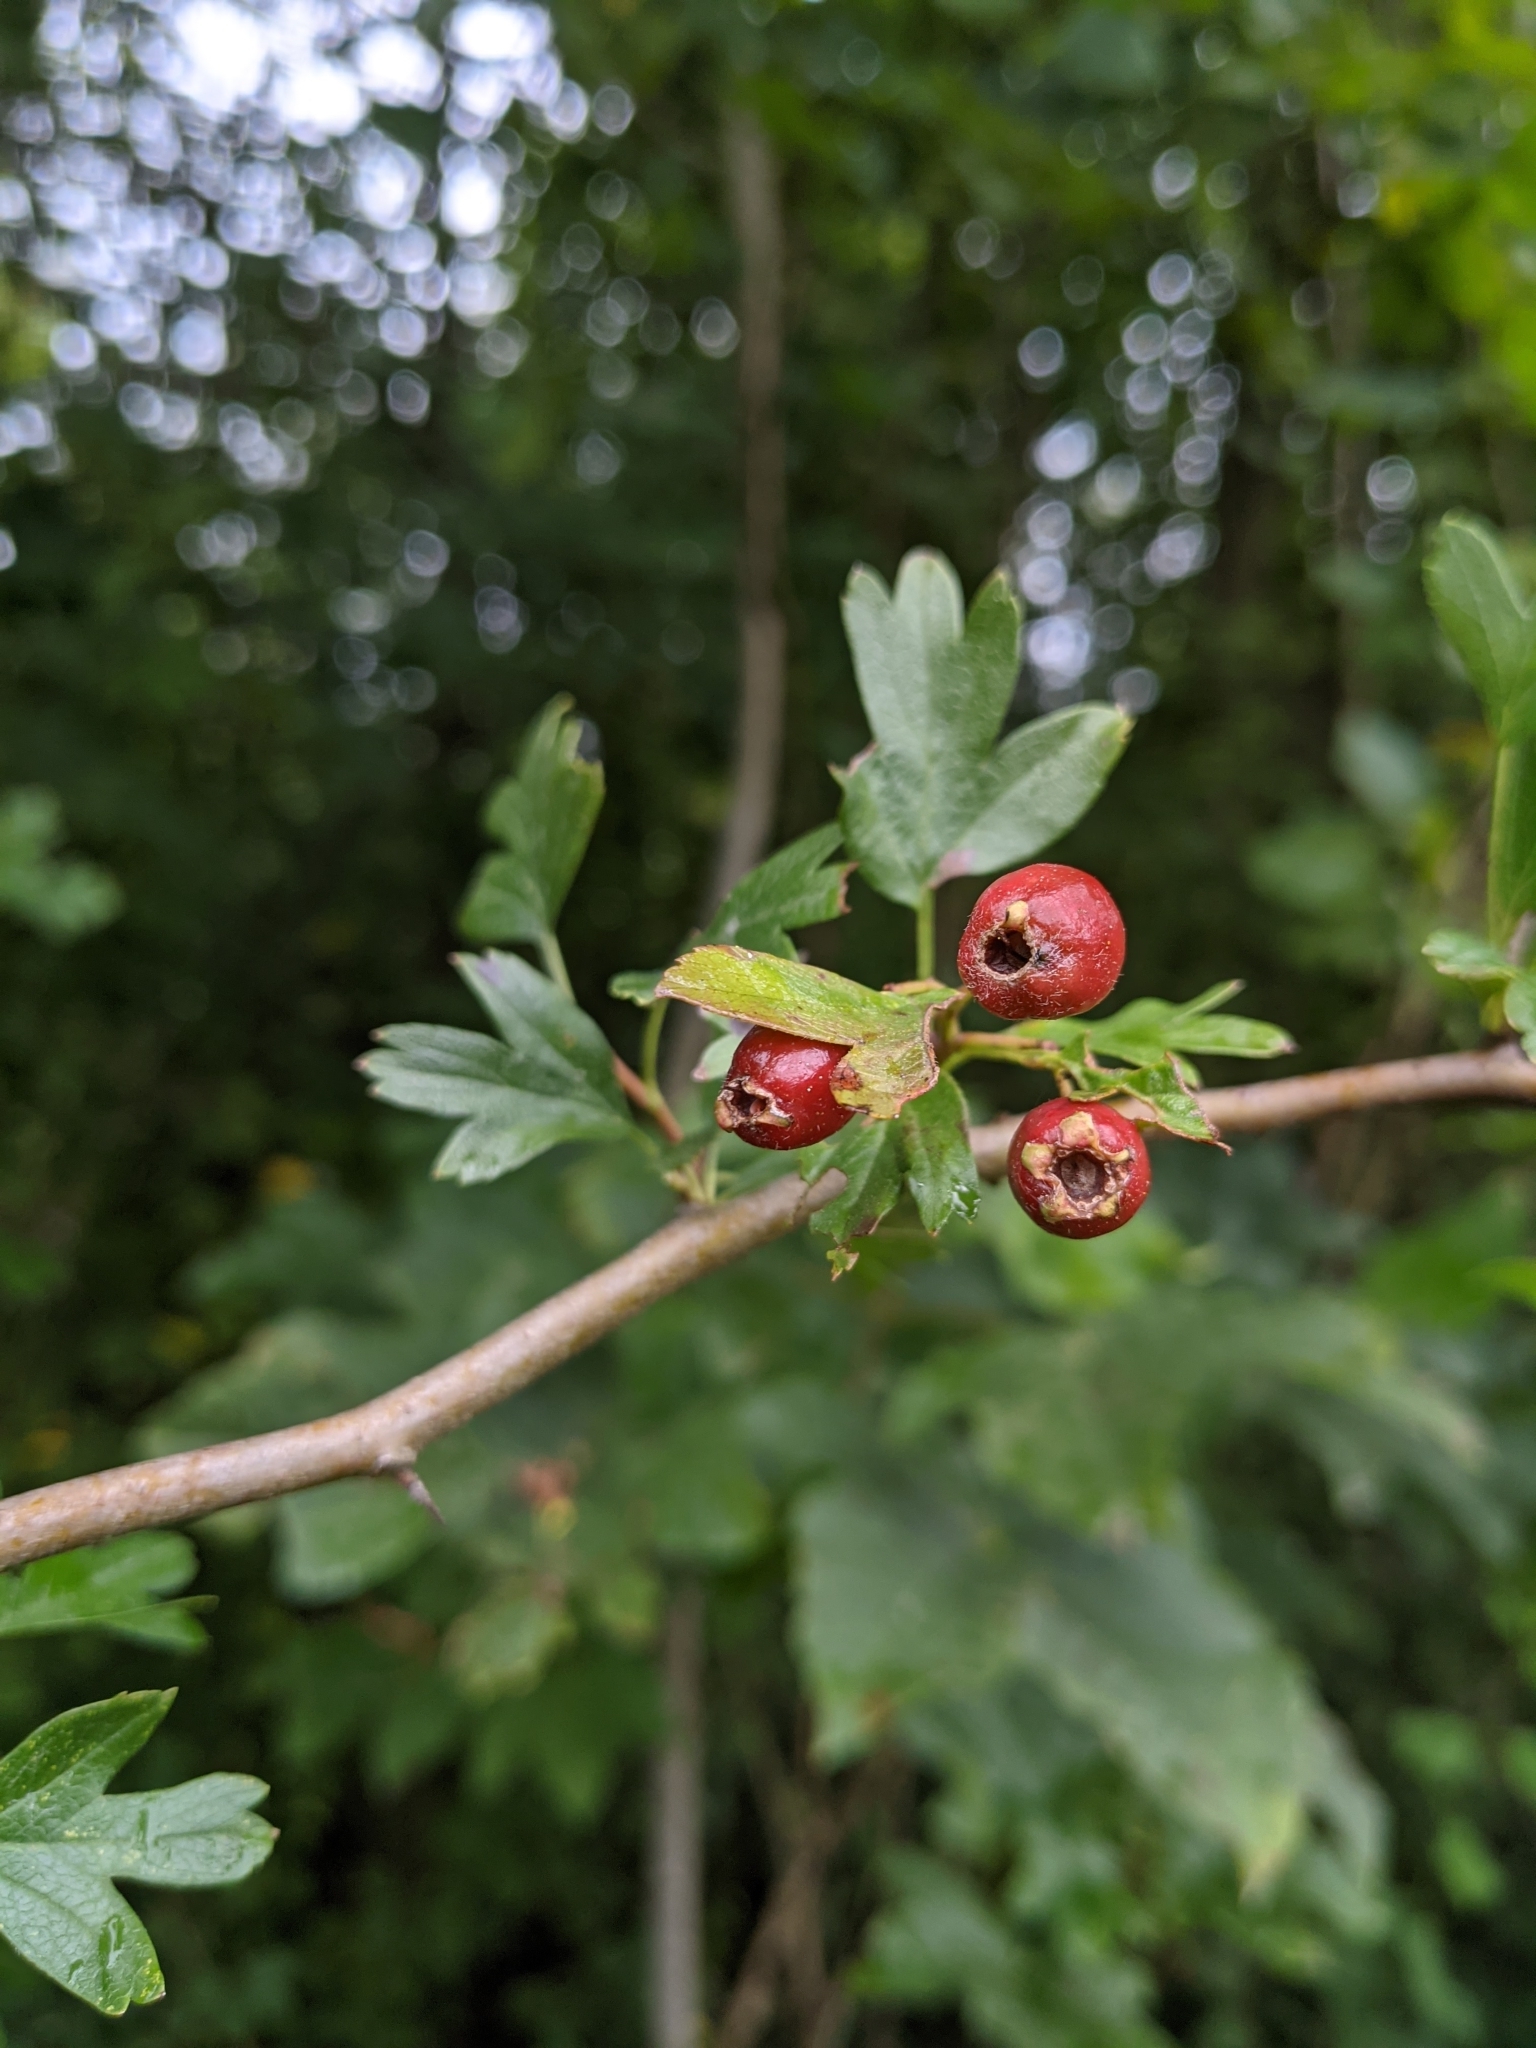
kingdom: Plantae
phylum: Tracheophyta
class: Magnoliopsida
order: Rosales
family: Rosaceae
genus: Crataegus
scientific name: Crataegus monogyna
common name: Hawthorn
